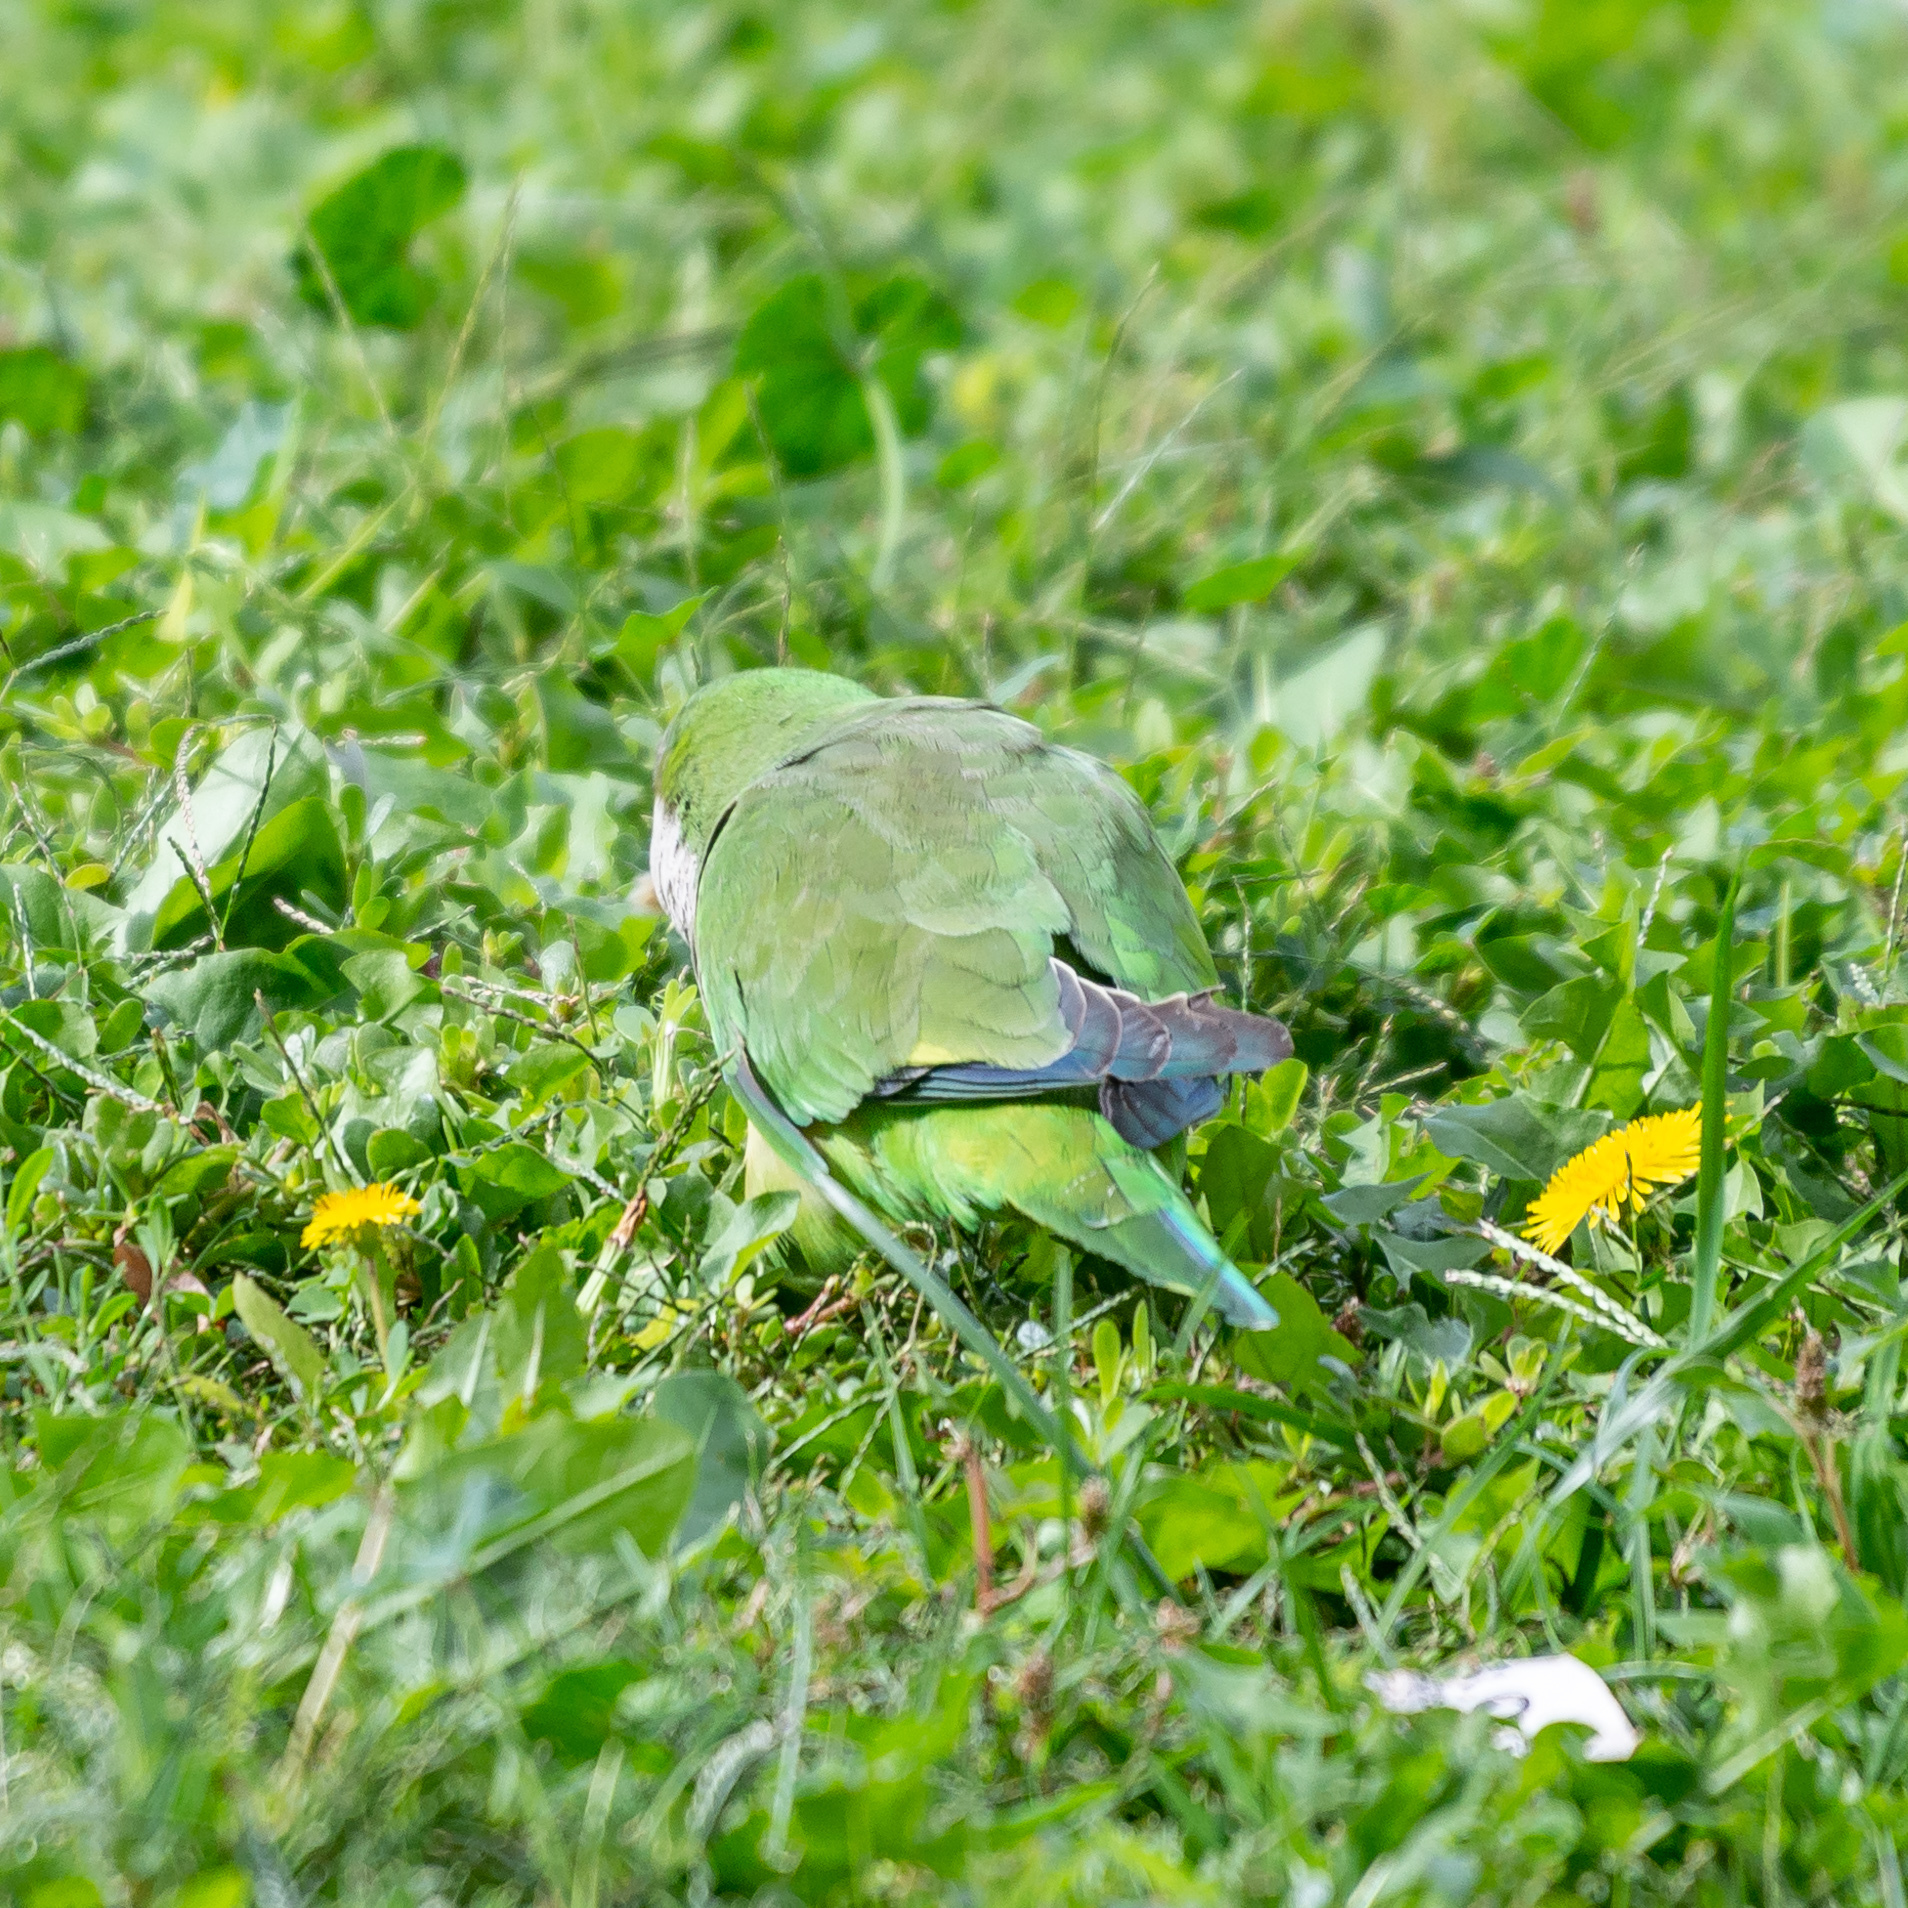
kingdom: Animalia
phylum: Chordata
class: Aves
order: Psittaciformes
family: Psittacidae
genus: Myiopsitta
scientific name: Myiopsitta monachus
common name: Monk parakeet
